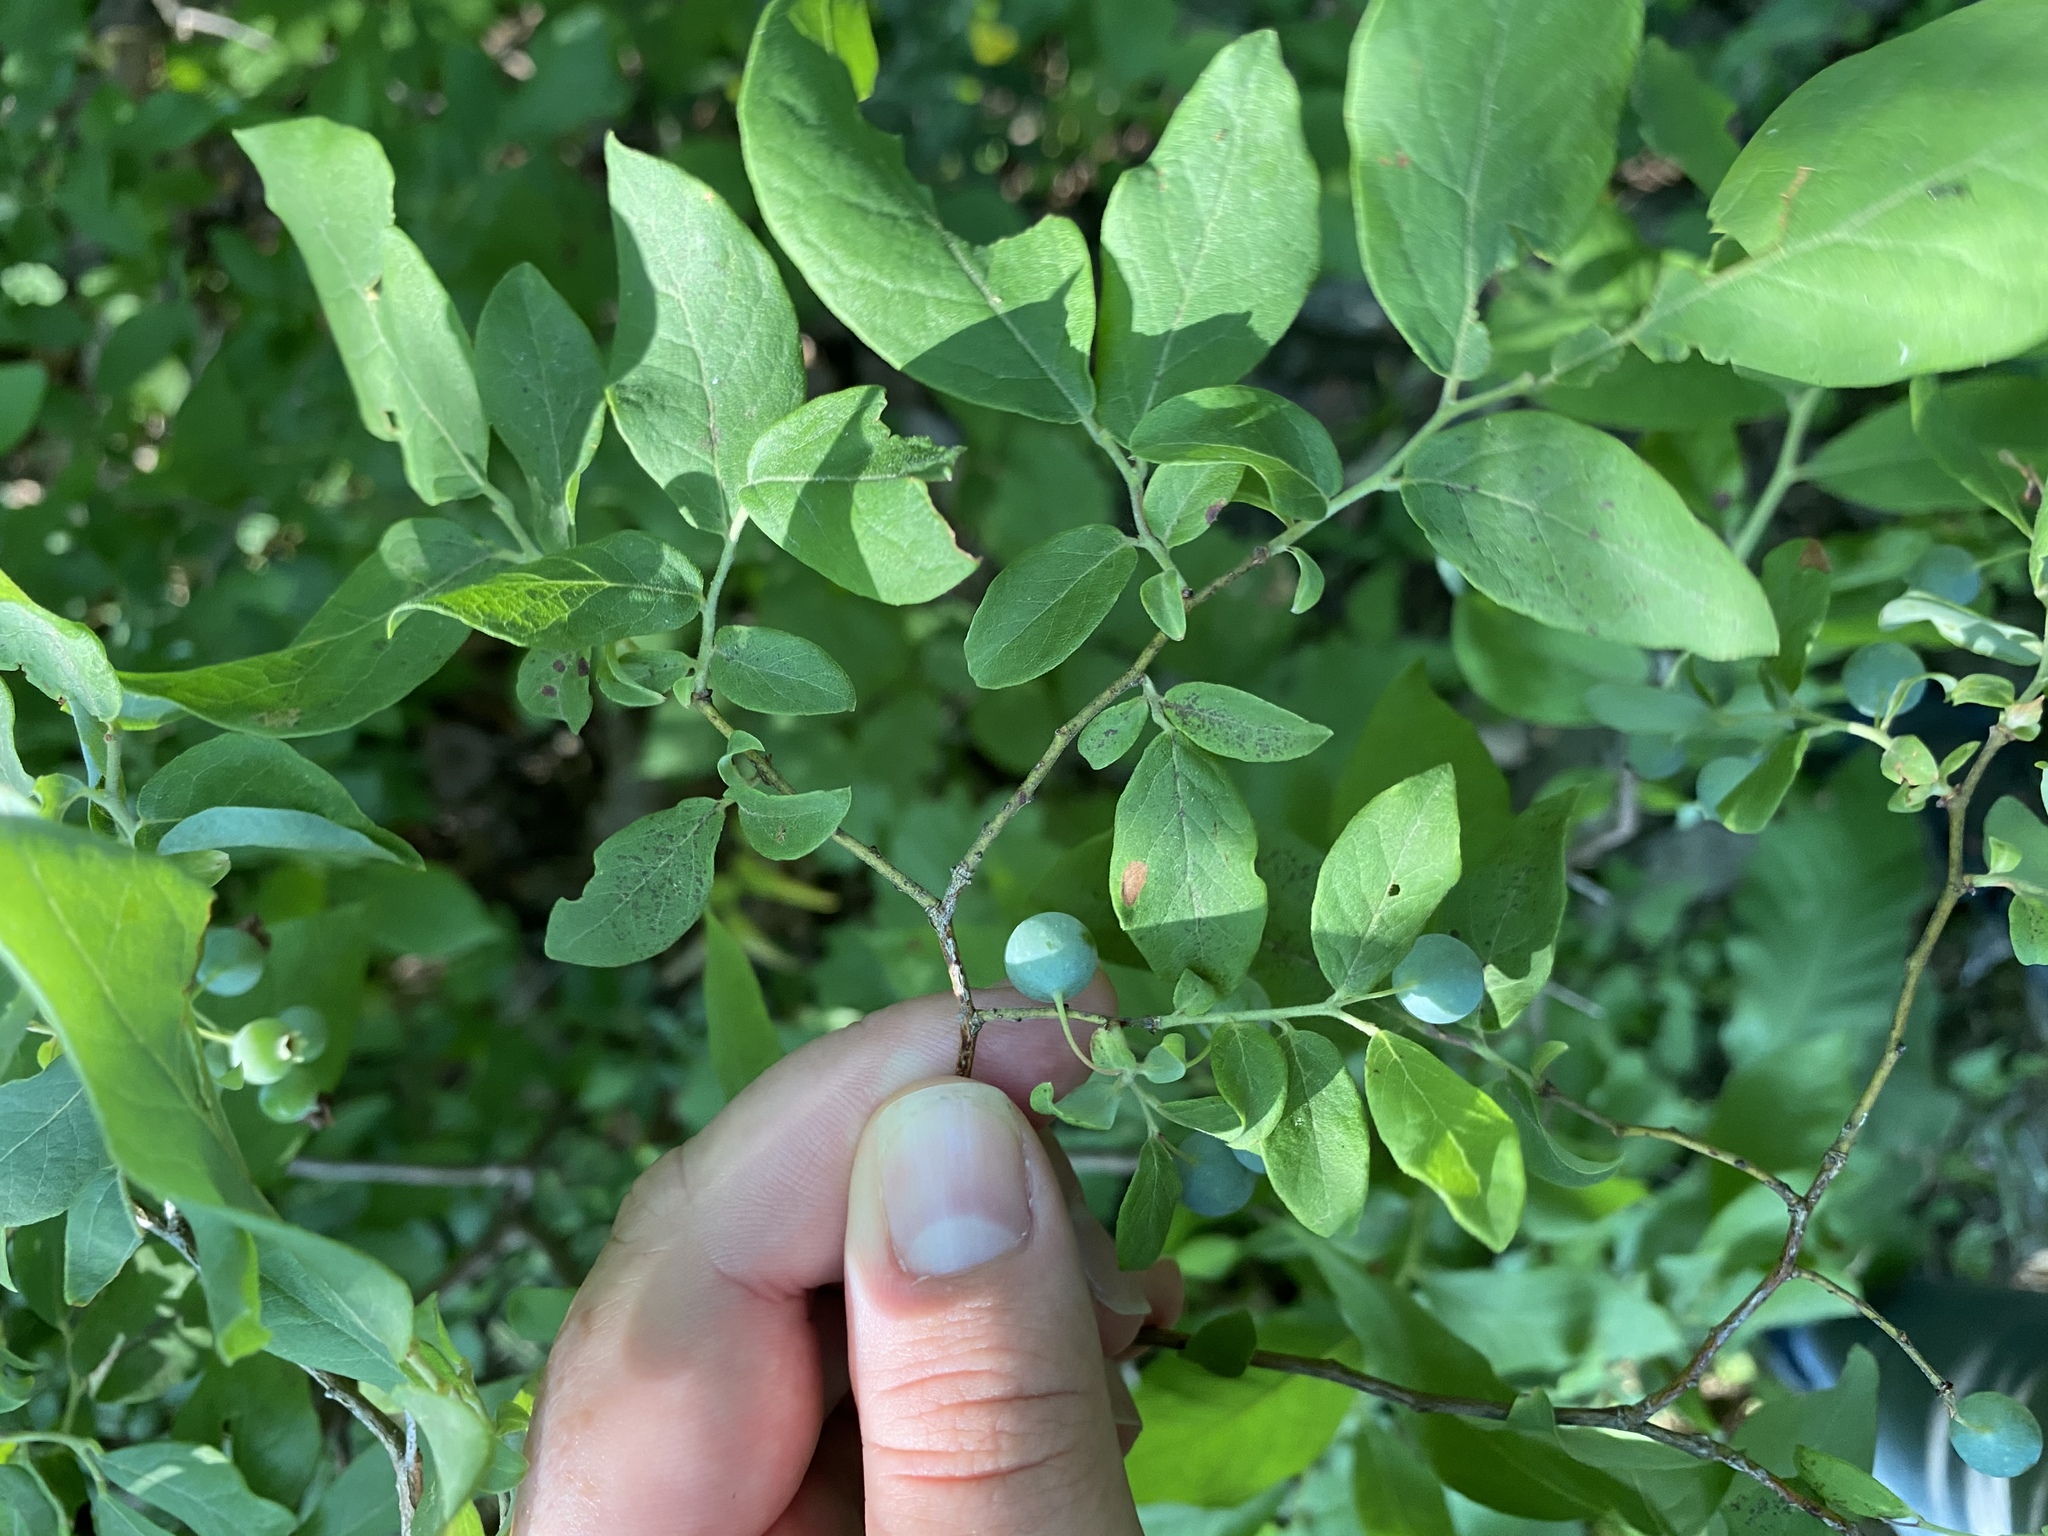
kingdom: Plantae
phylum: Tracheophyta
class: Magnoliopsida
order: Ericales
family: Ericaceae
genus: Vaccinium
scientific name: Vaccinium stamineum
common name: Deerberry
